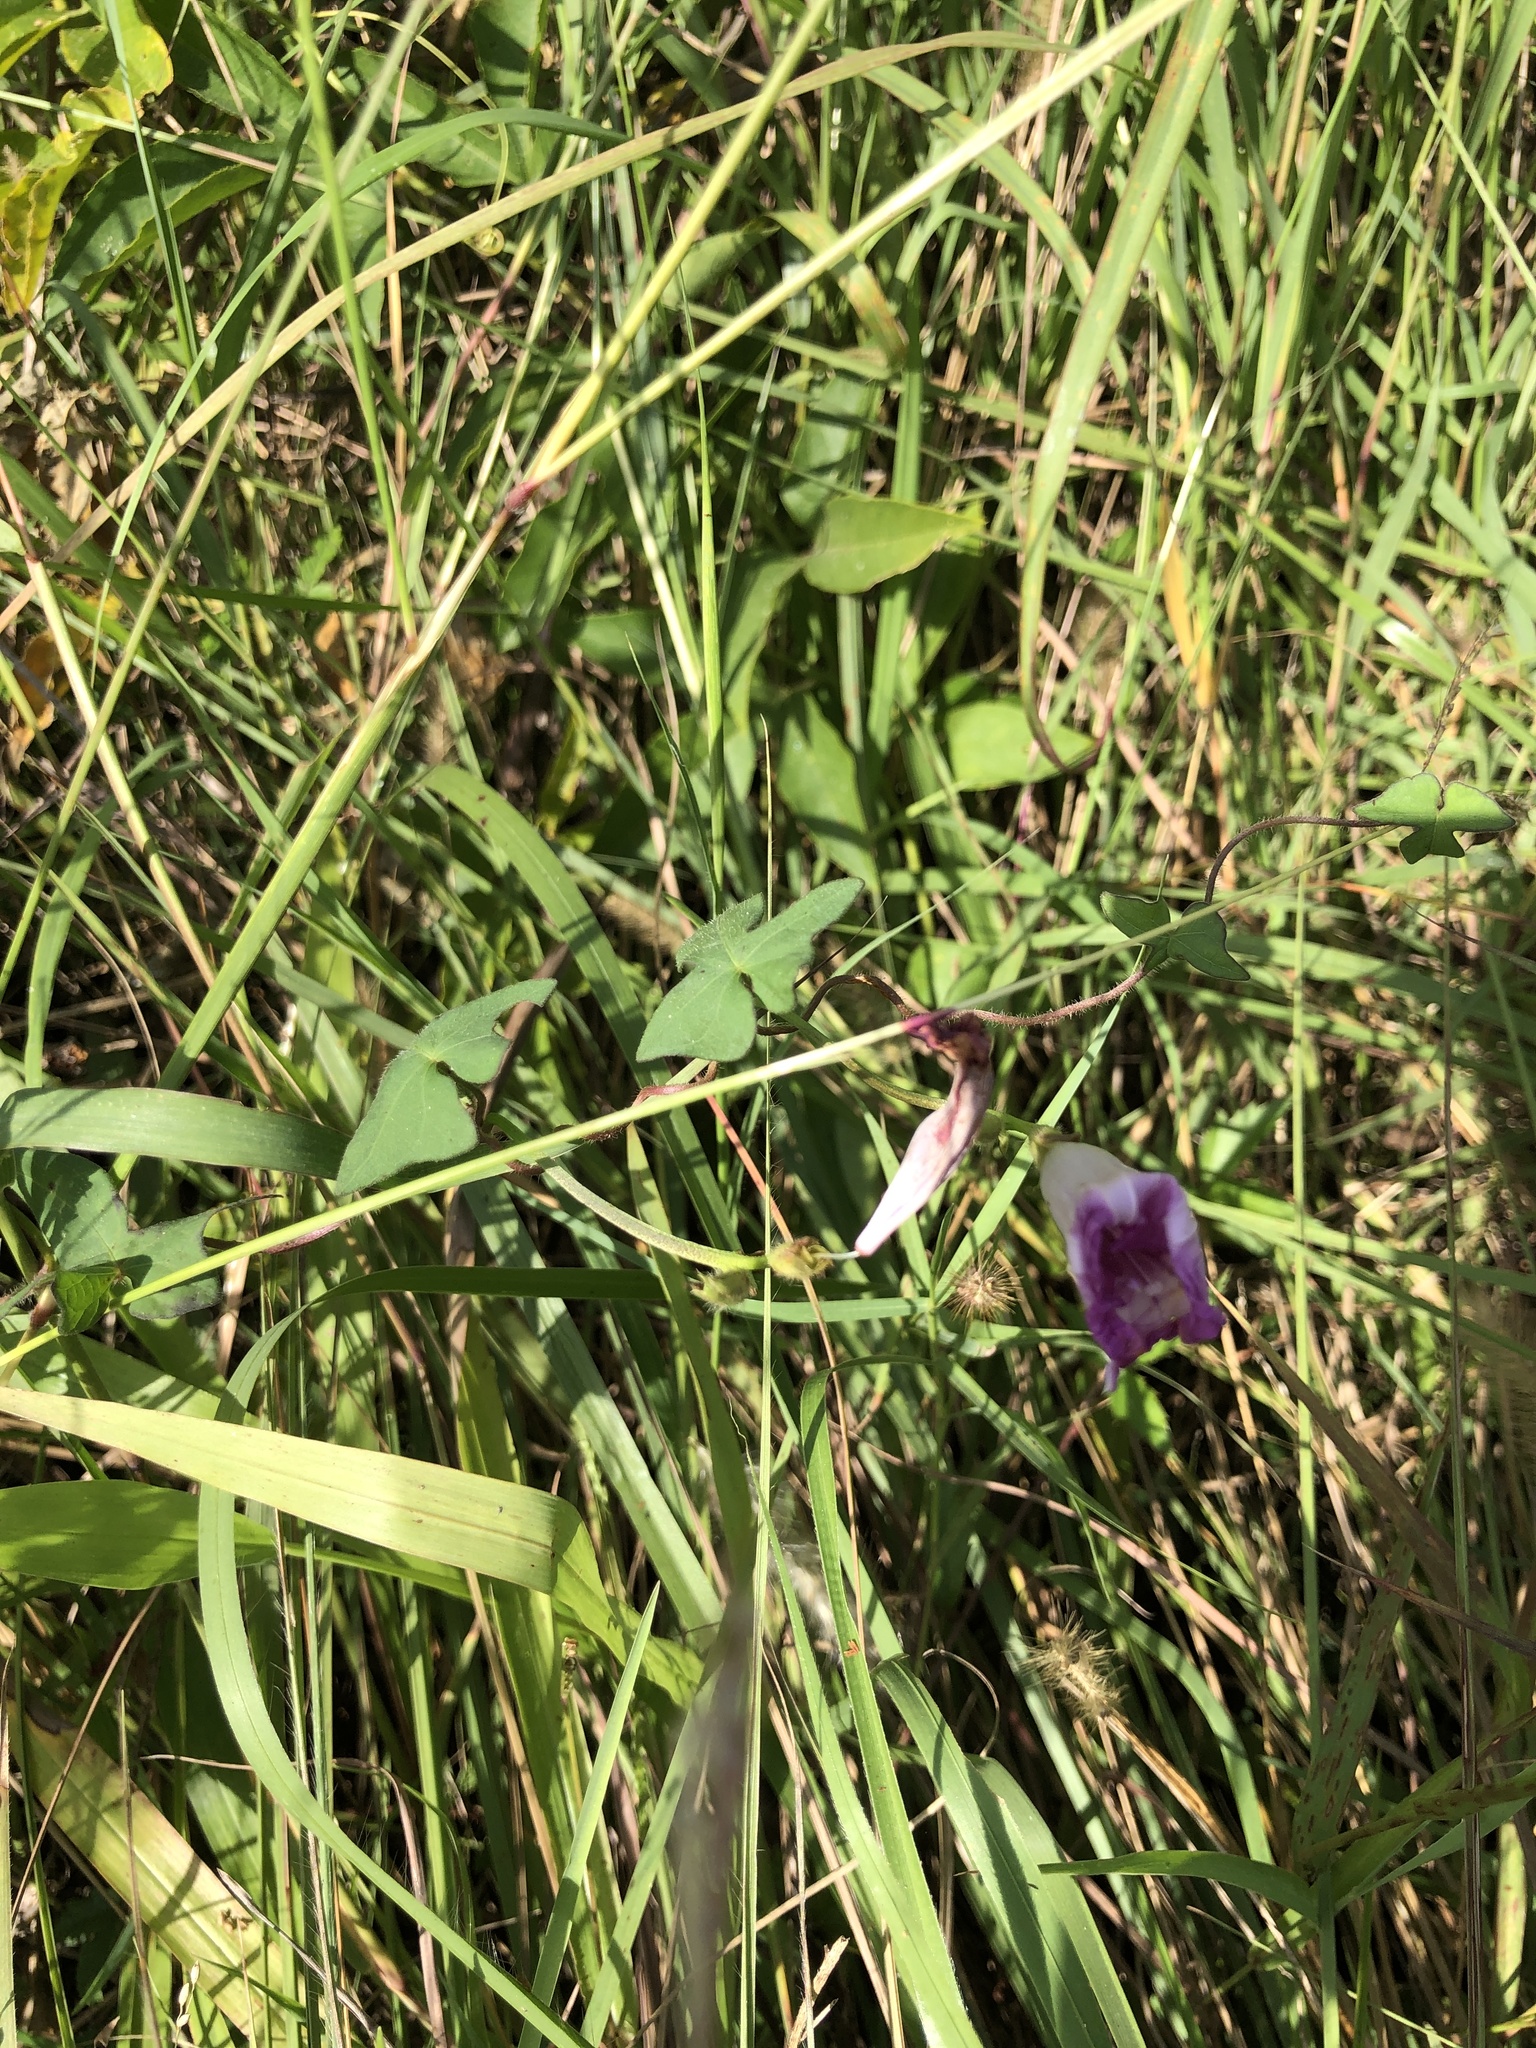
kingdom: Plantae
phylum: Tracheophyta
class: Magnoliopsida
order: Solanales
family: Convolvulaceae
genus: Ipomoea
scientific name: Ipomoea cordatotriloba
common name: Cotton morning glory
